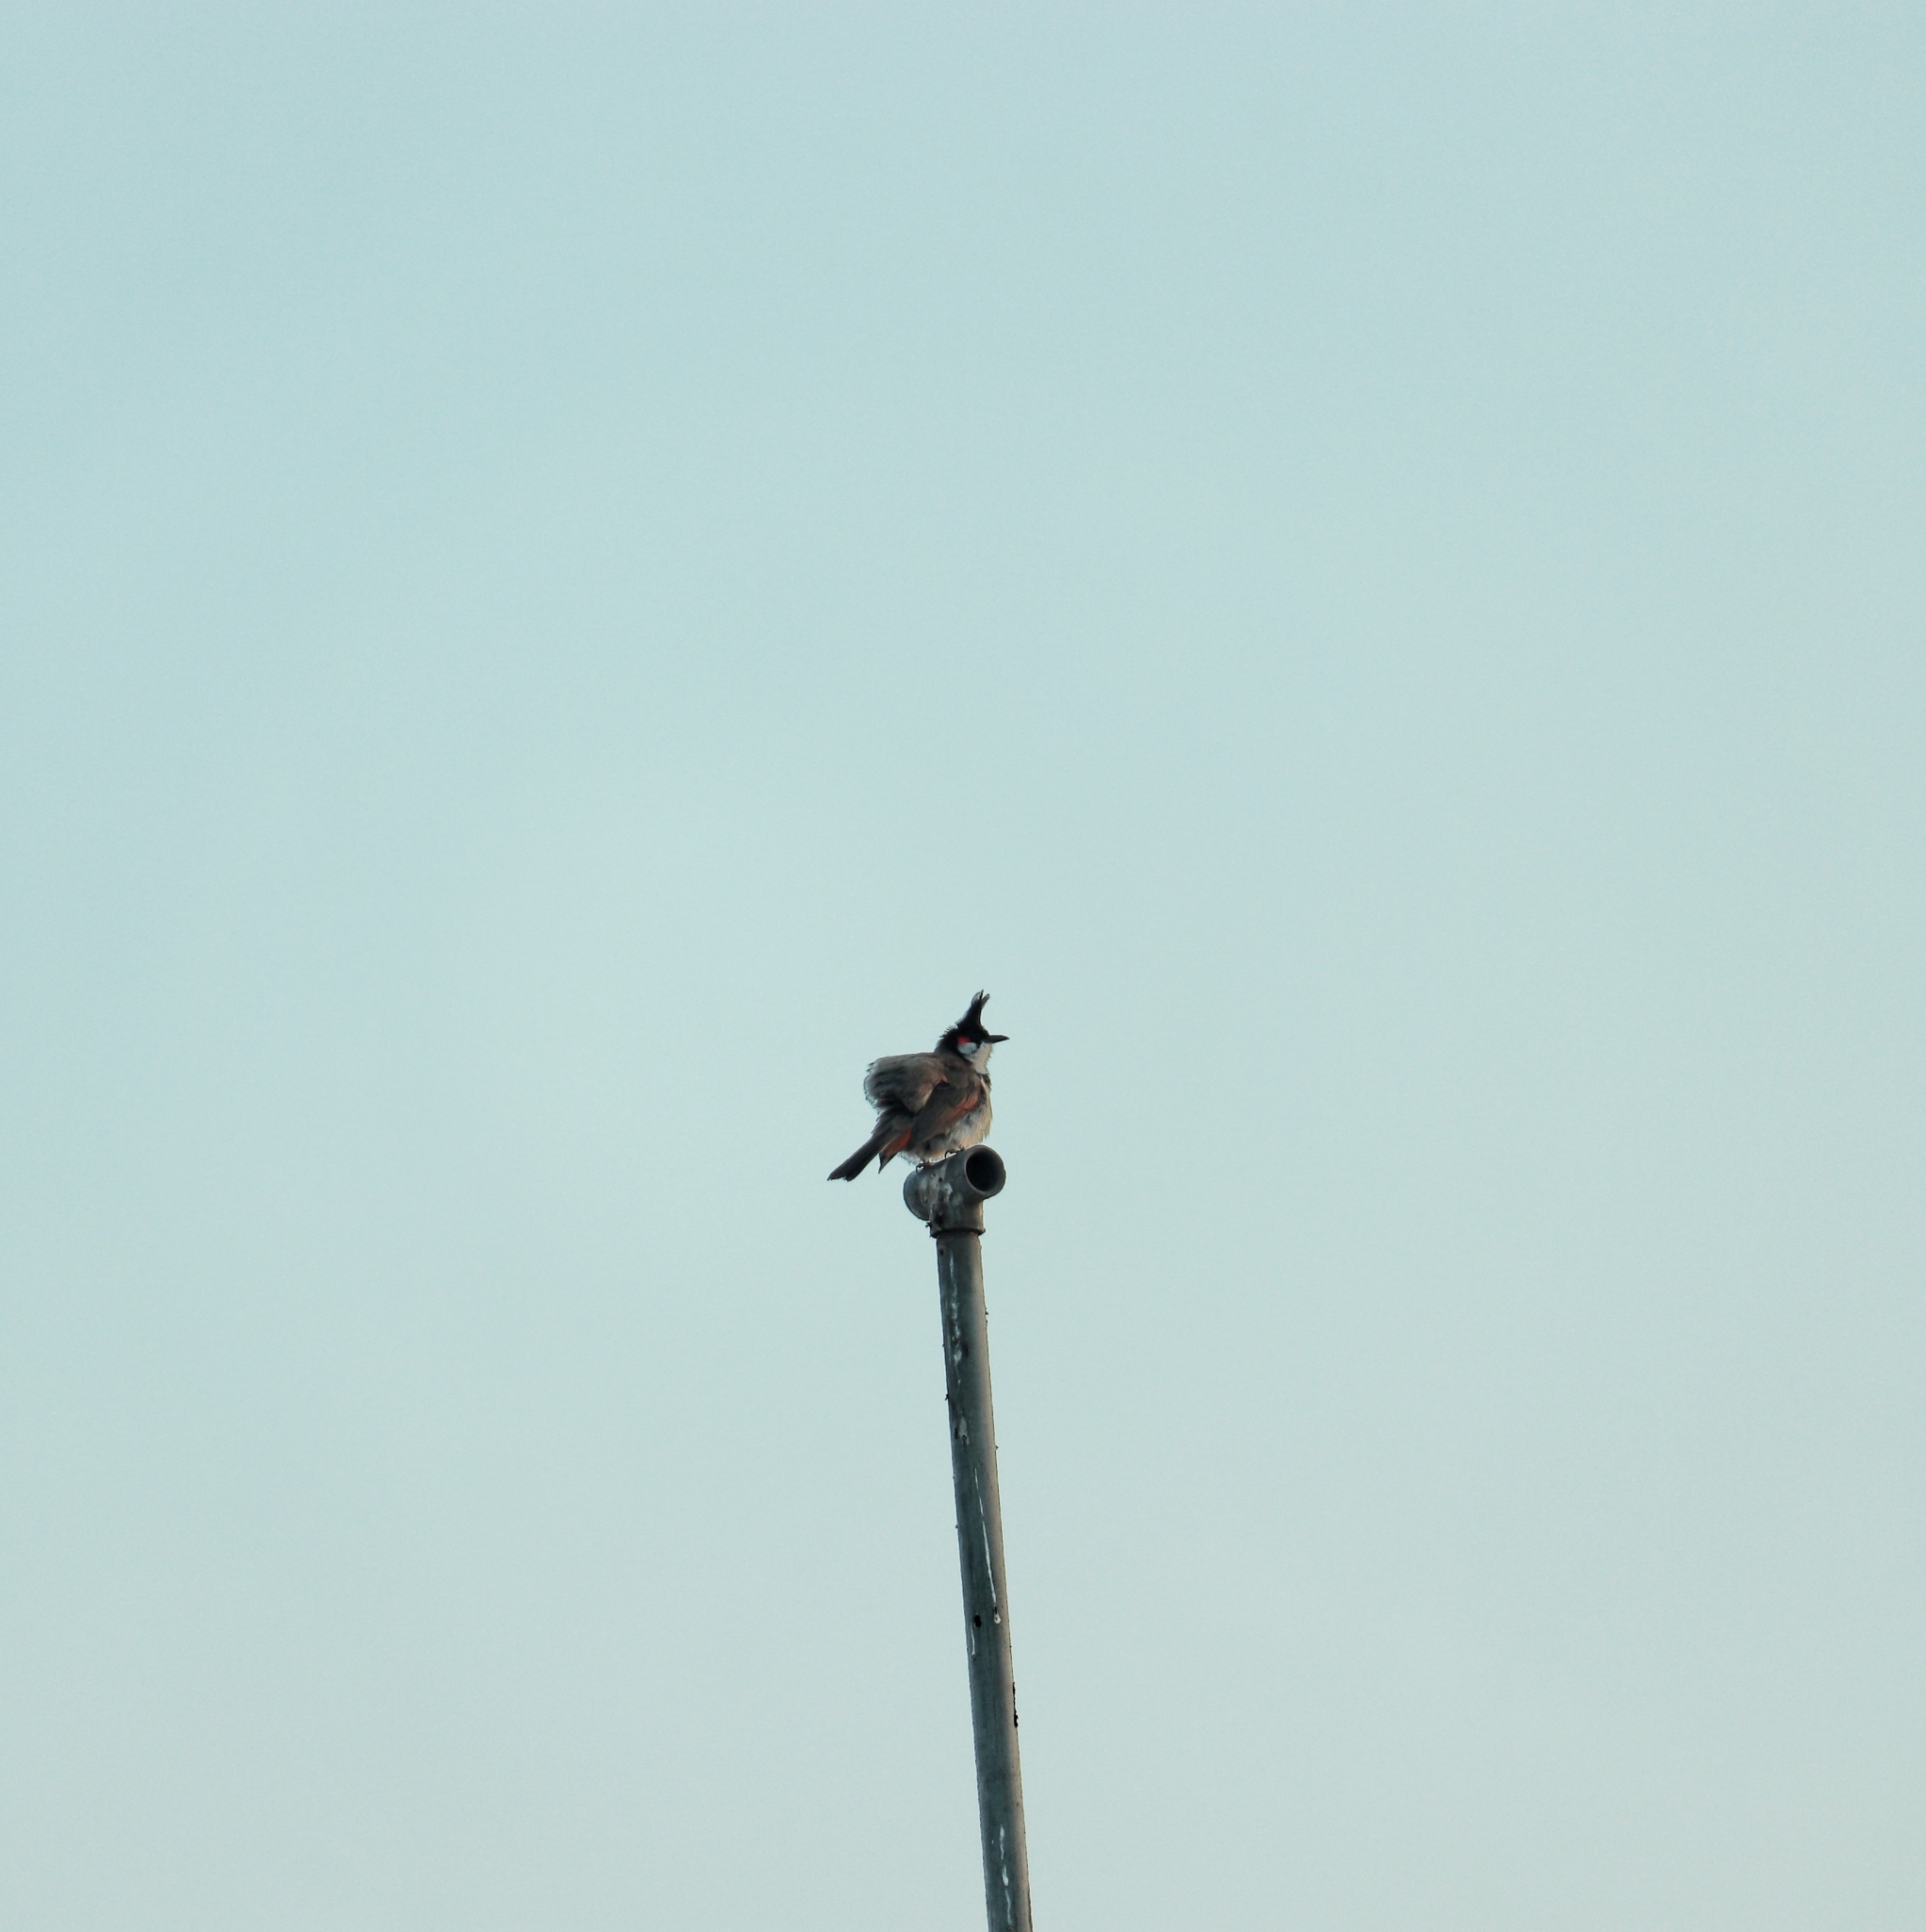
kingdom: Animalia
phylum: Chordata
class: Aves
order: Passeriformes
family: Pycnonotidae
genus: Pycnonotus
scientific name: Pycnonotus jocosus
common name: Red-whiskered bulbul
